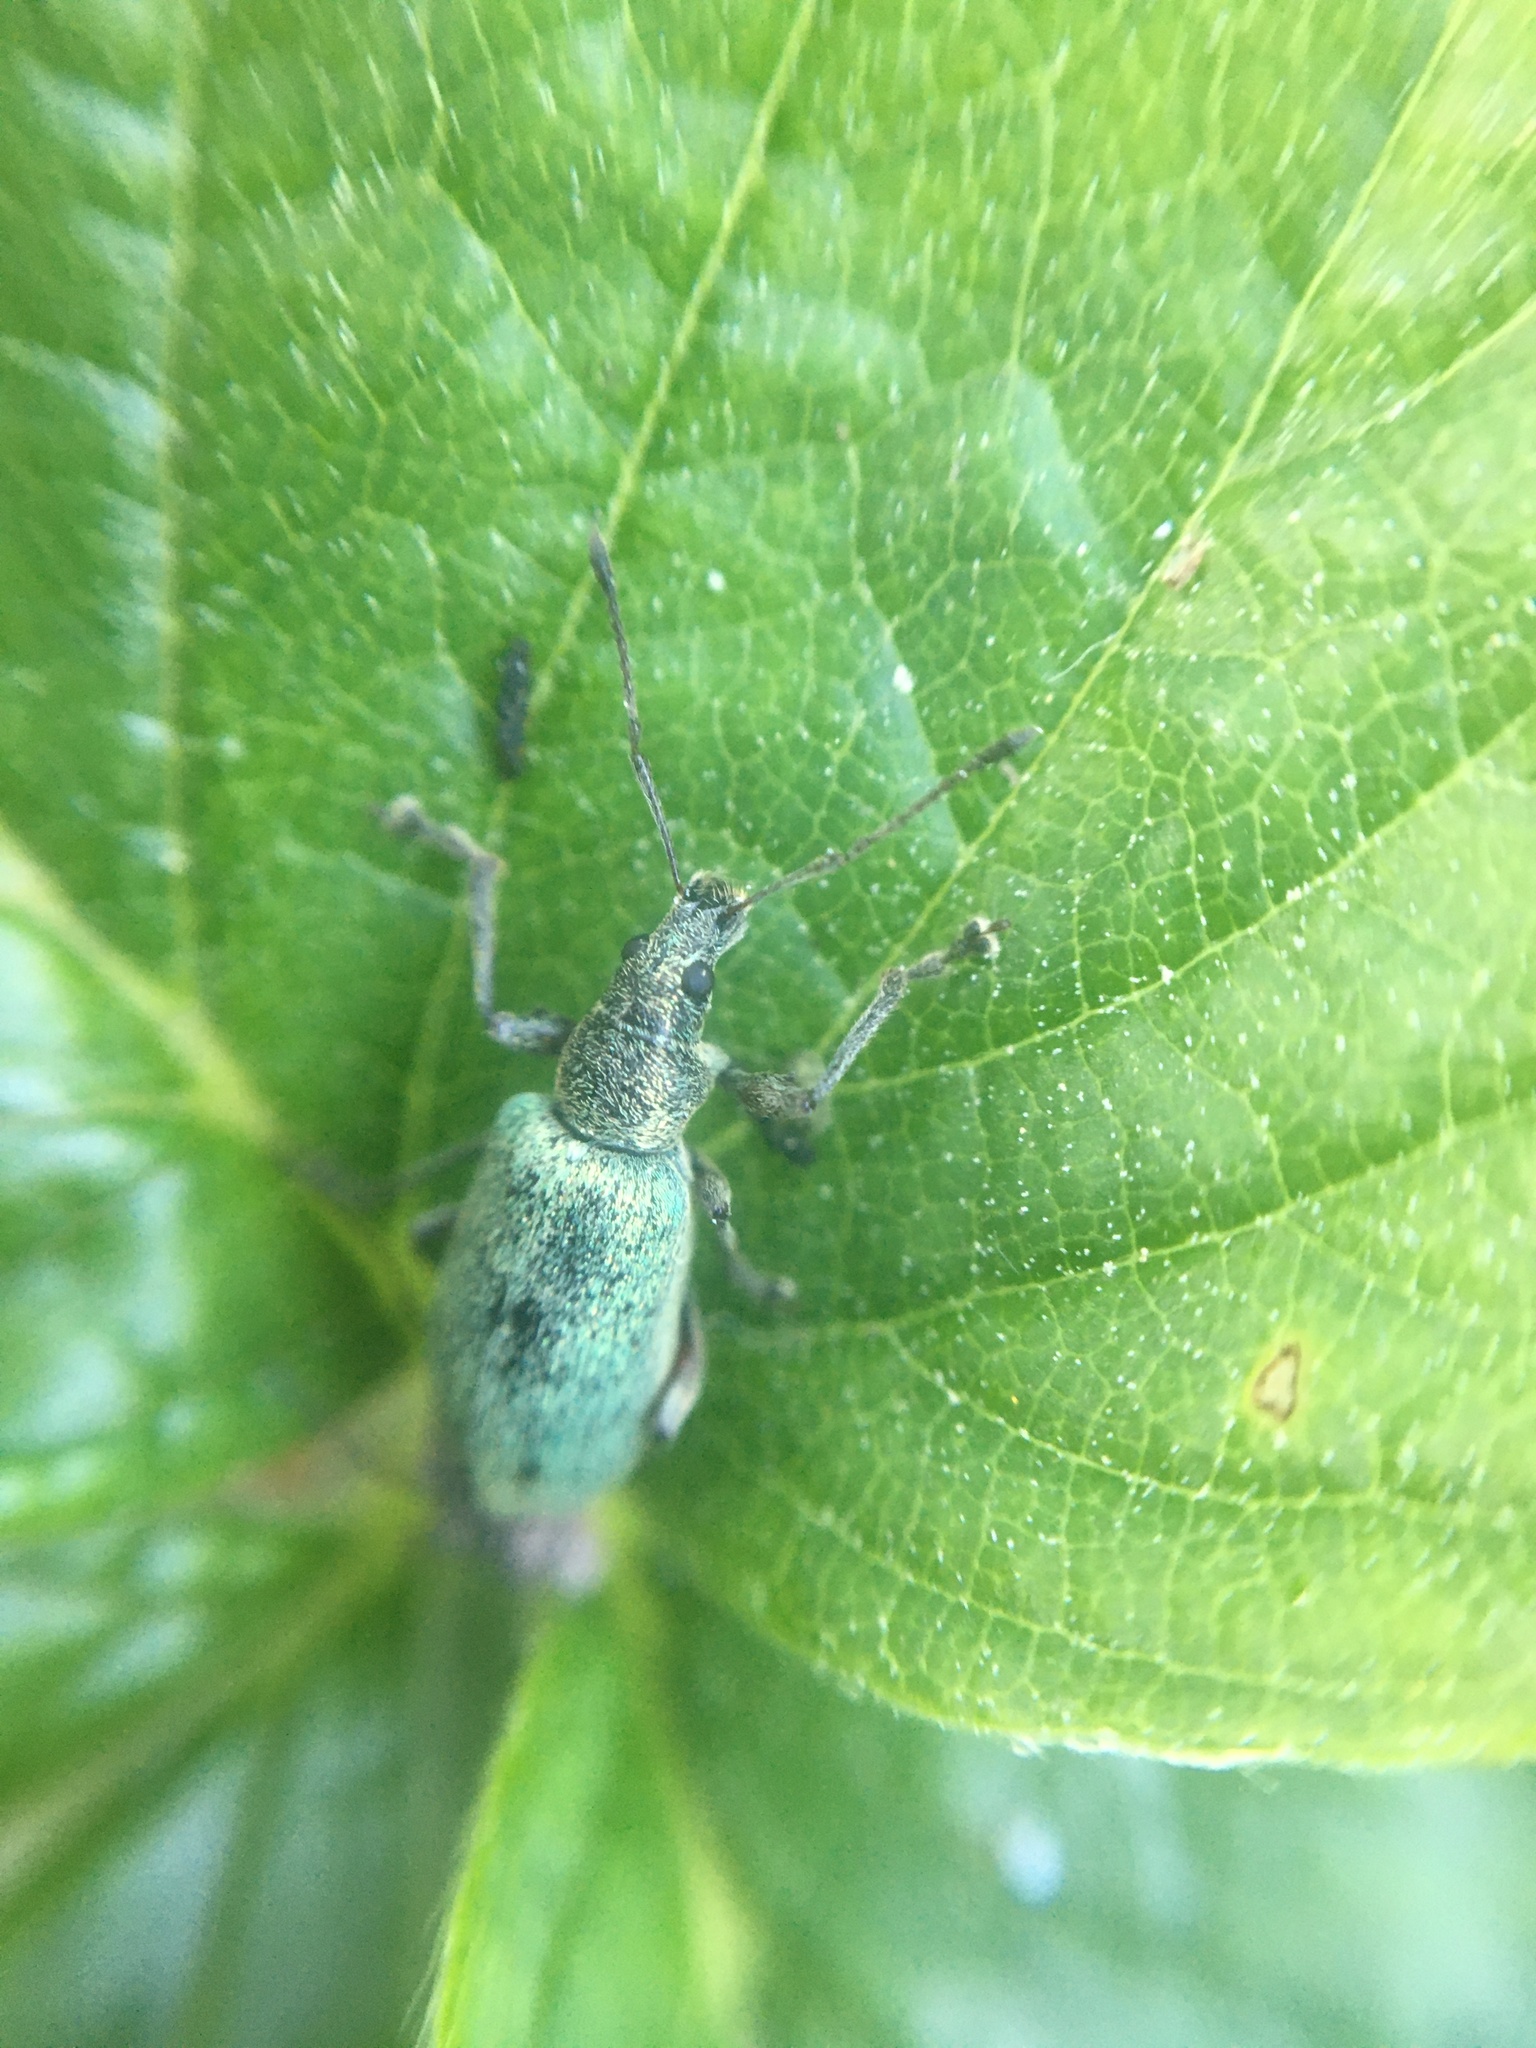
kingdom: Animalia
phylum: Arthropoda
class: Insecta
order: Coleoptera
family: Curculionidae
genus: Phyllobius
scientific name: Phyllobius pomaceus
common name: Green nettle weevil
